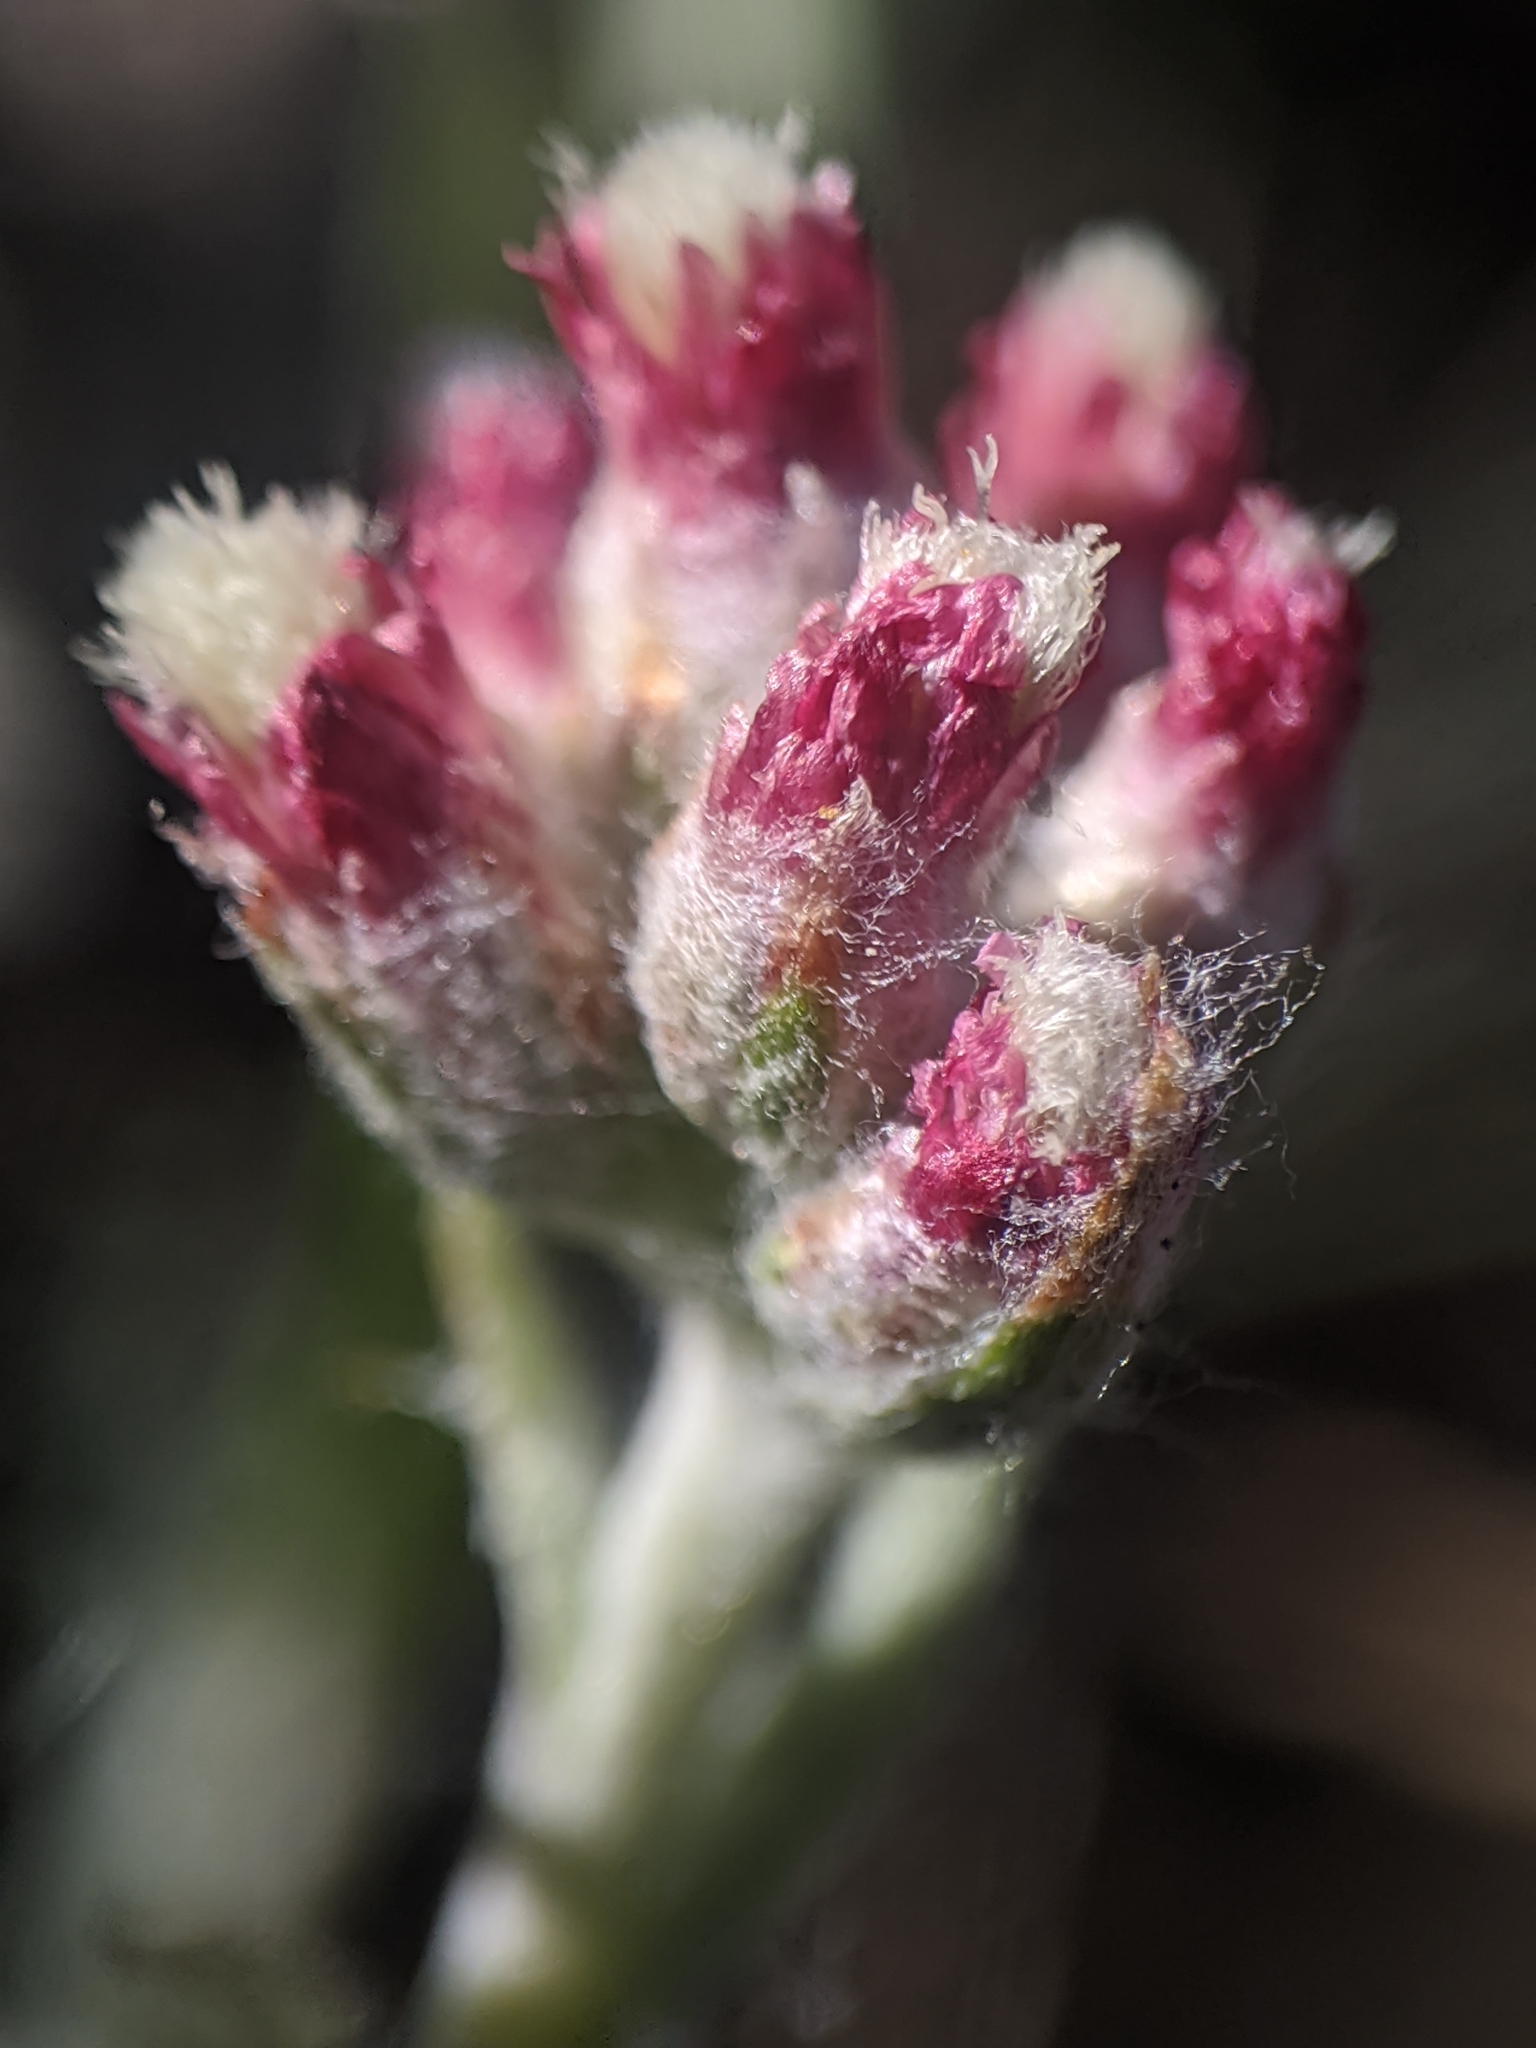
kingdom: Plantae
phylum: Tracheophyta
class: Magnoliopsida
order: Asterales
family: Asteraceae
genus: Antennaria
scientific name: Antennaria rosea
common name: Rosy pussytoes
